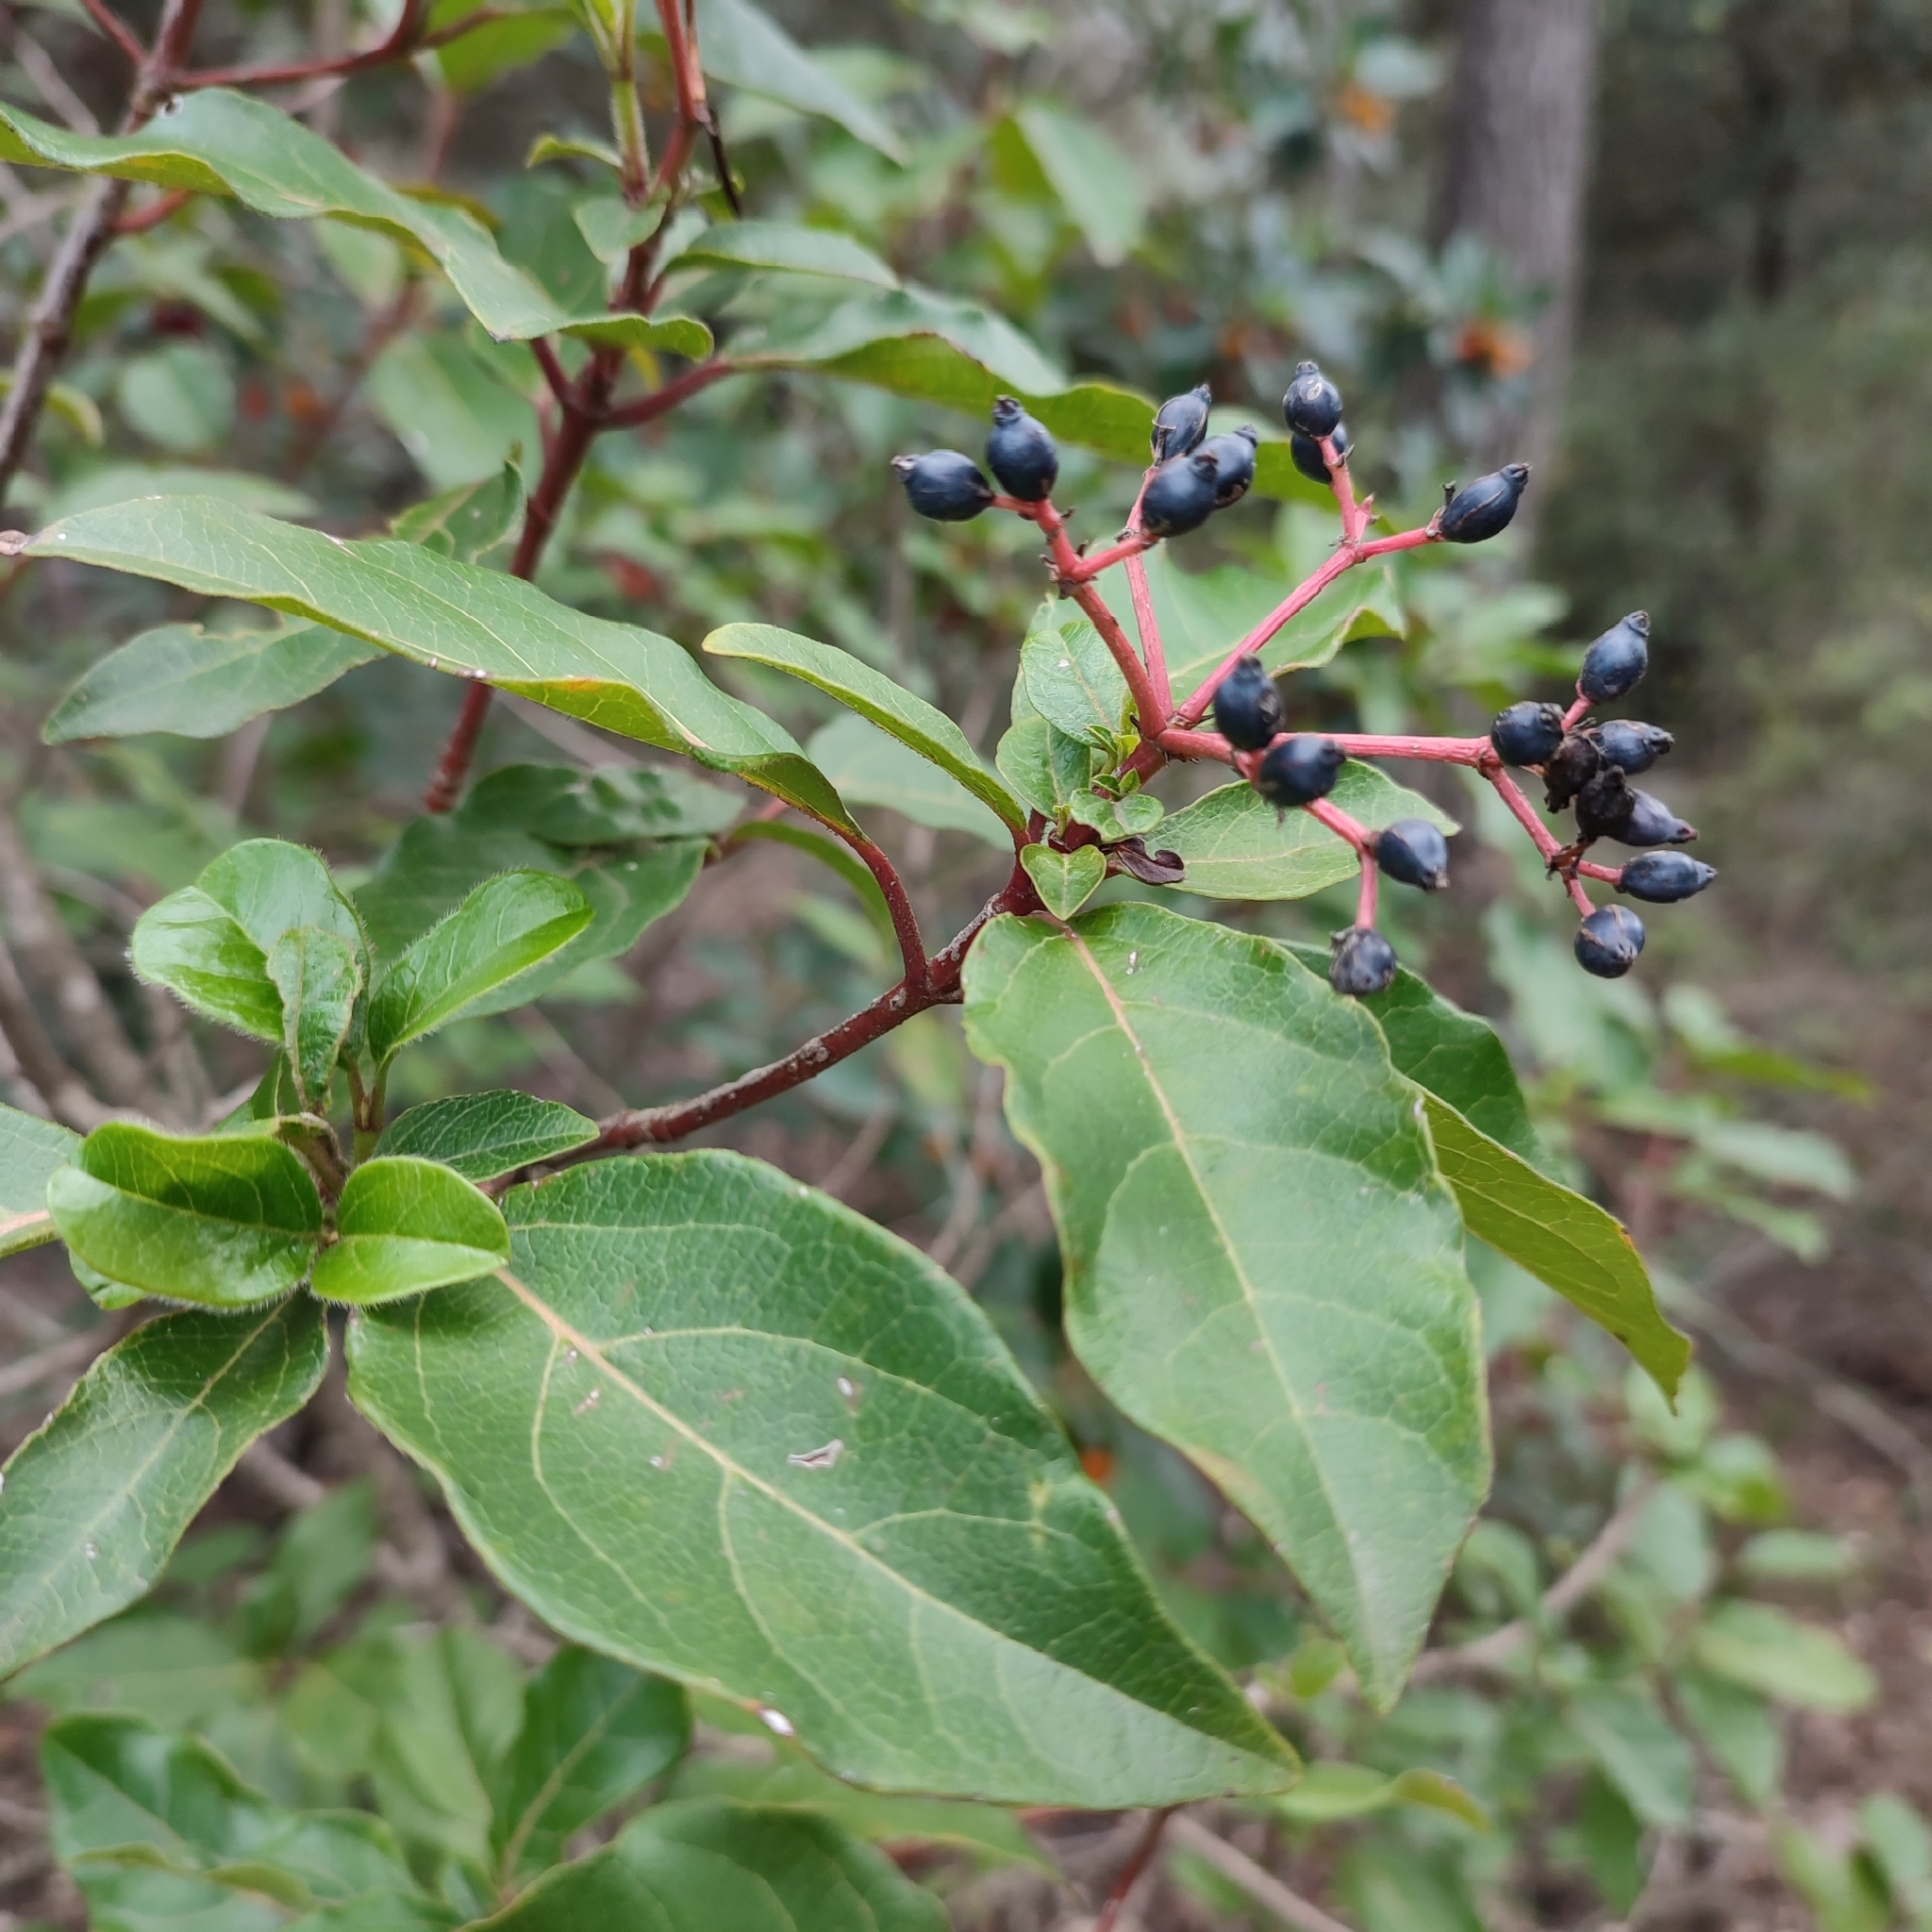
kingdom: Plantae
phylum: Tracheophyta
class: Magnoliopsida
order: Dipsacales
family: Viburnaceae
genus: Viburnum
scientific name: Viburnum tinus
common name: Laurustinus
